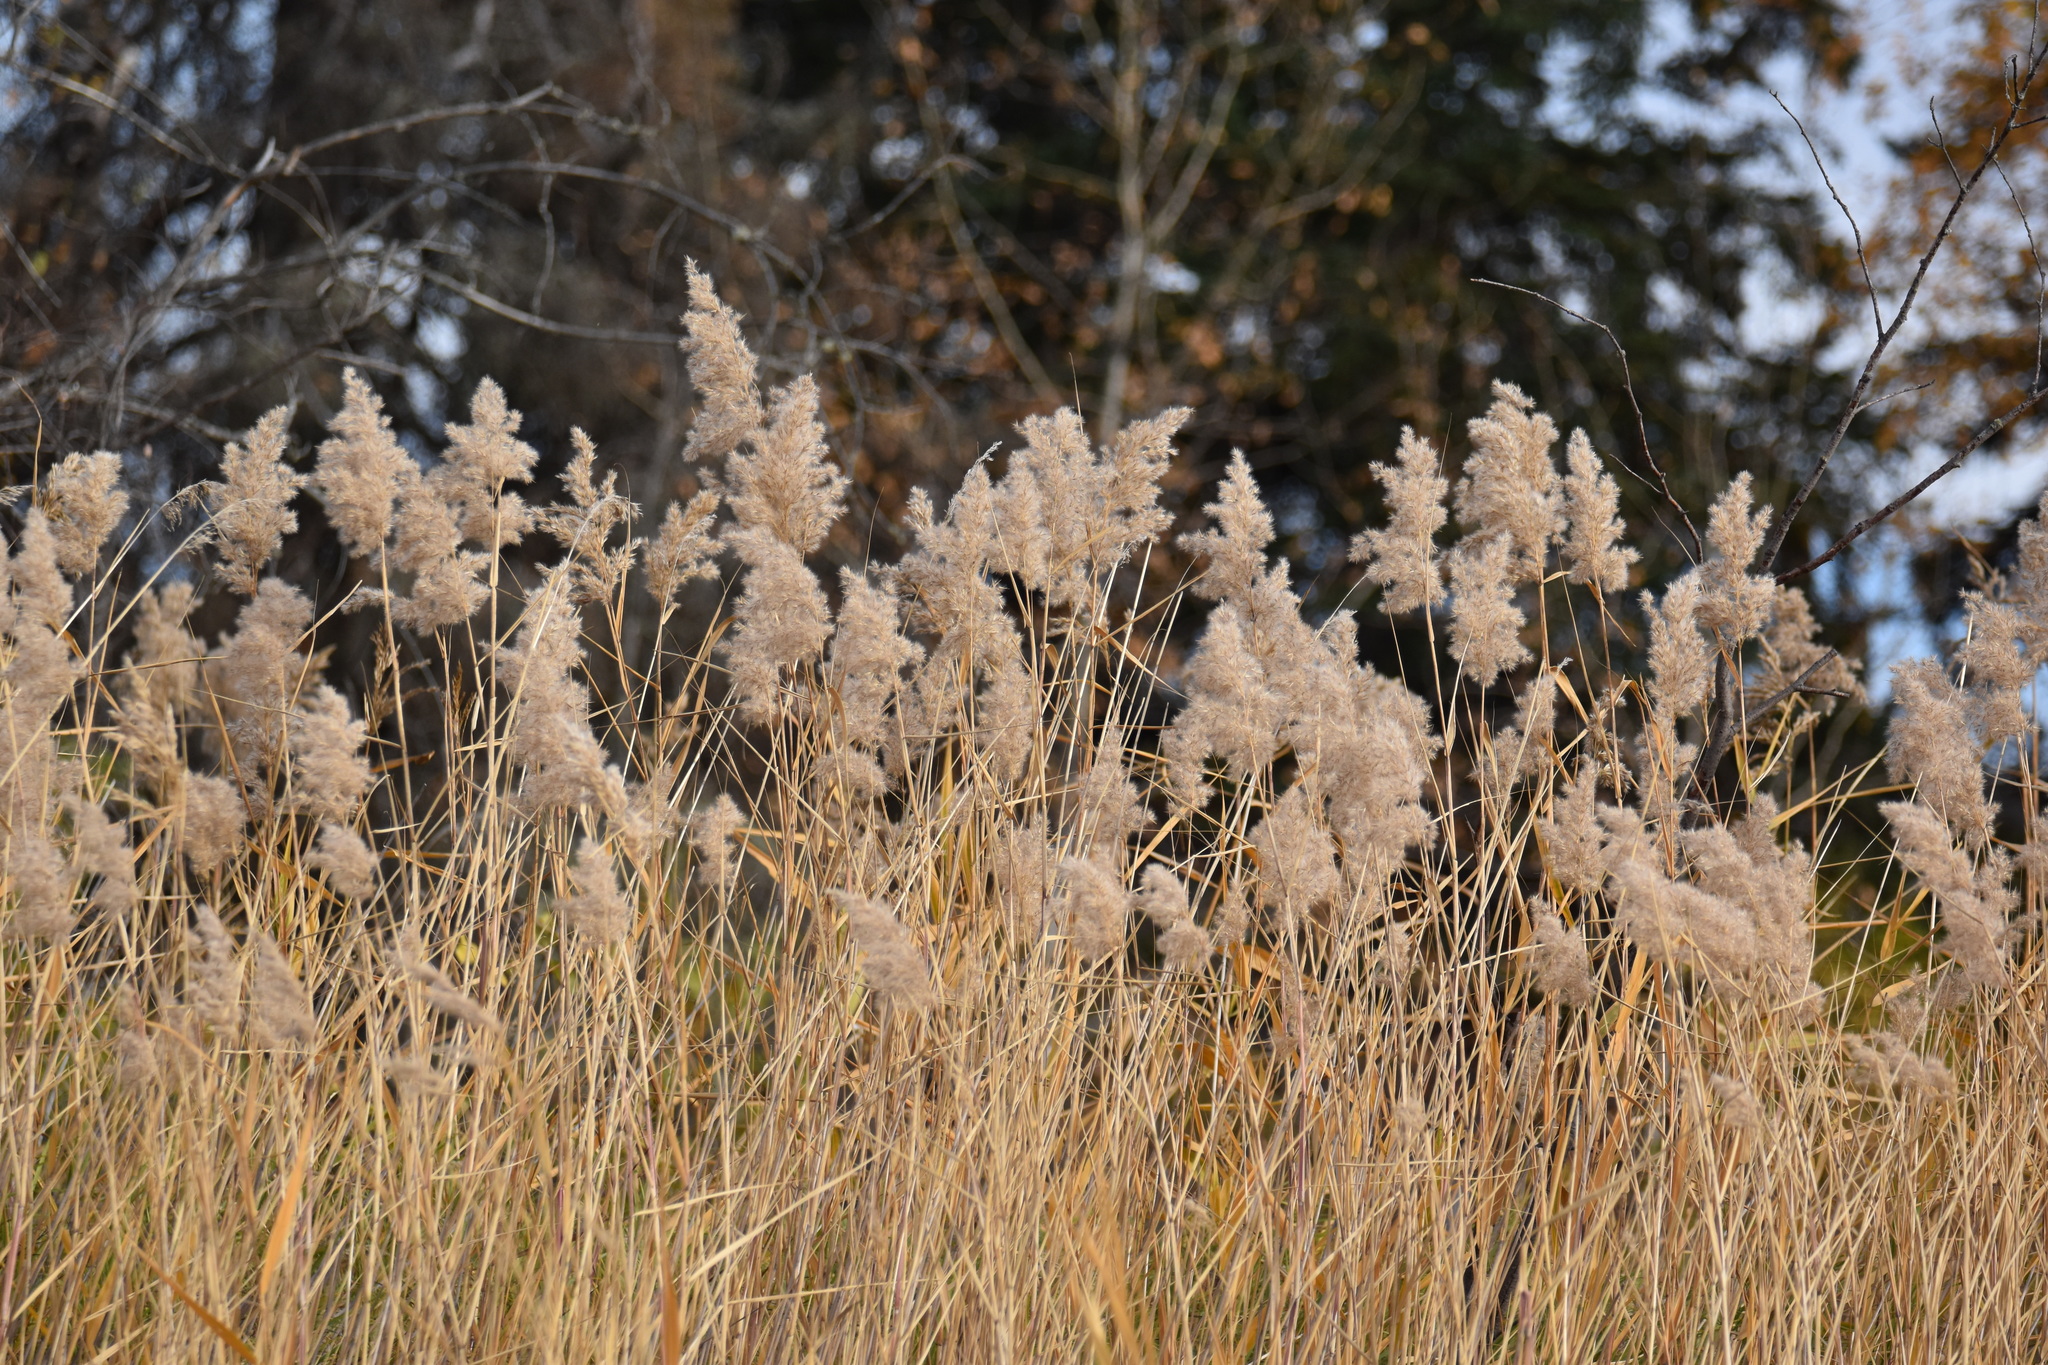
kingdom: Plantae
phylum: Tracheophyta
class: Liliopsida
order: Poales
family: Poaceae
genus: Phragmites
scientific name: Phragmites australis
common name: Common reed
